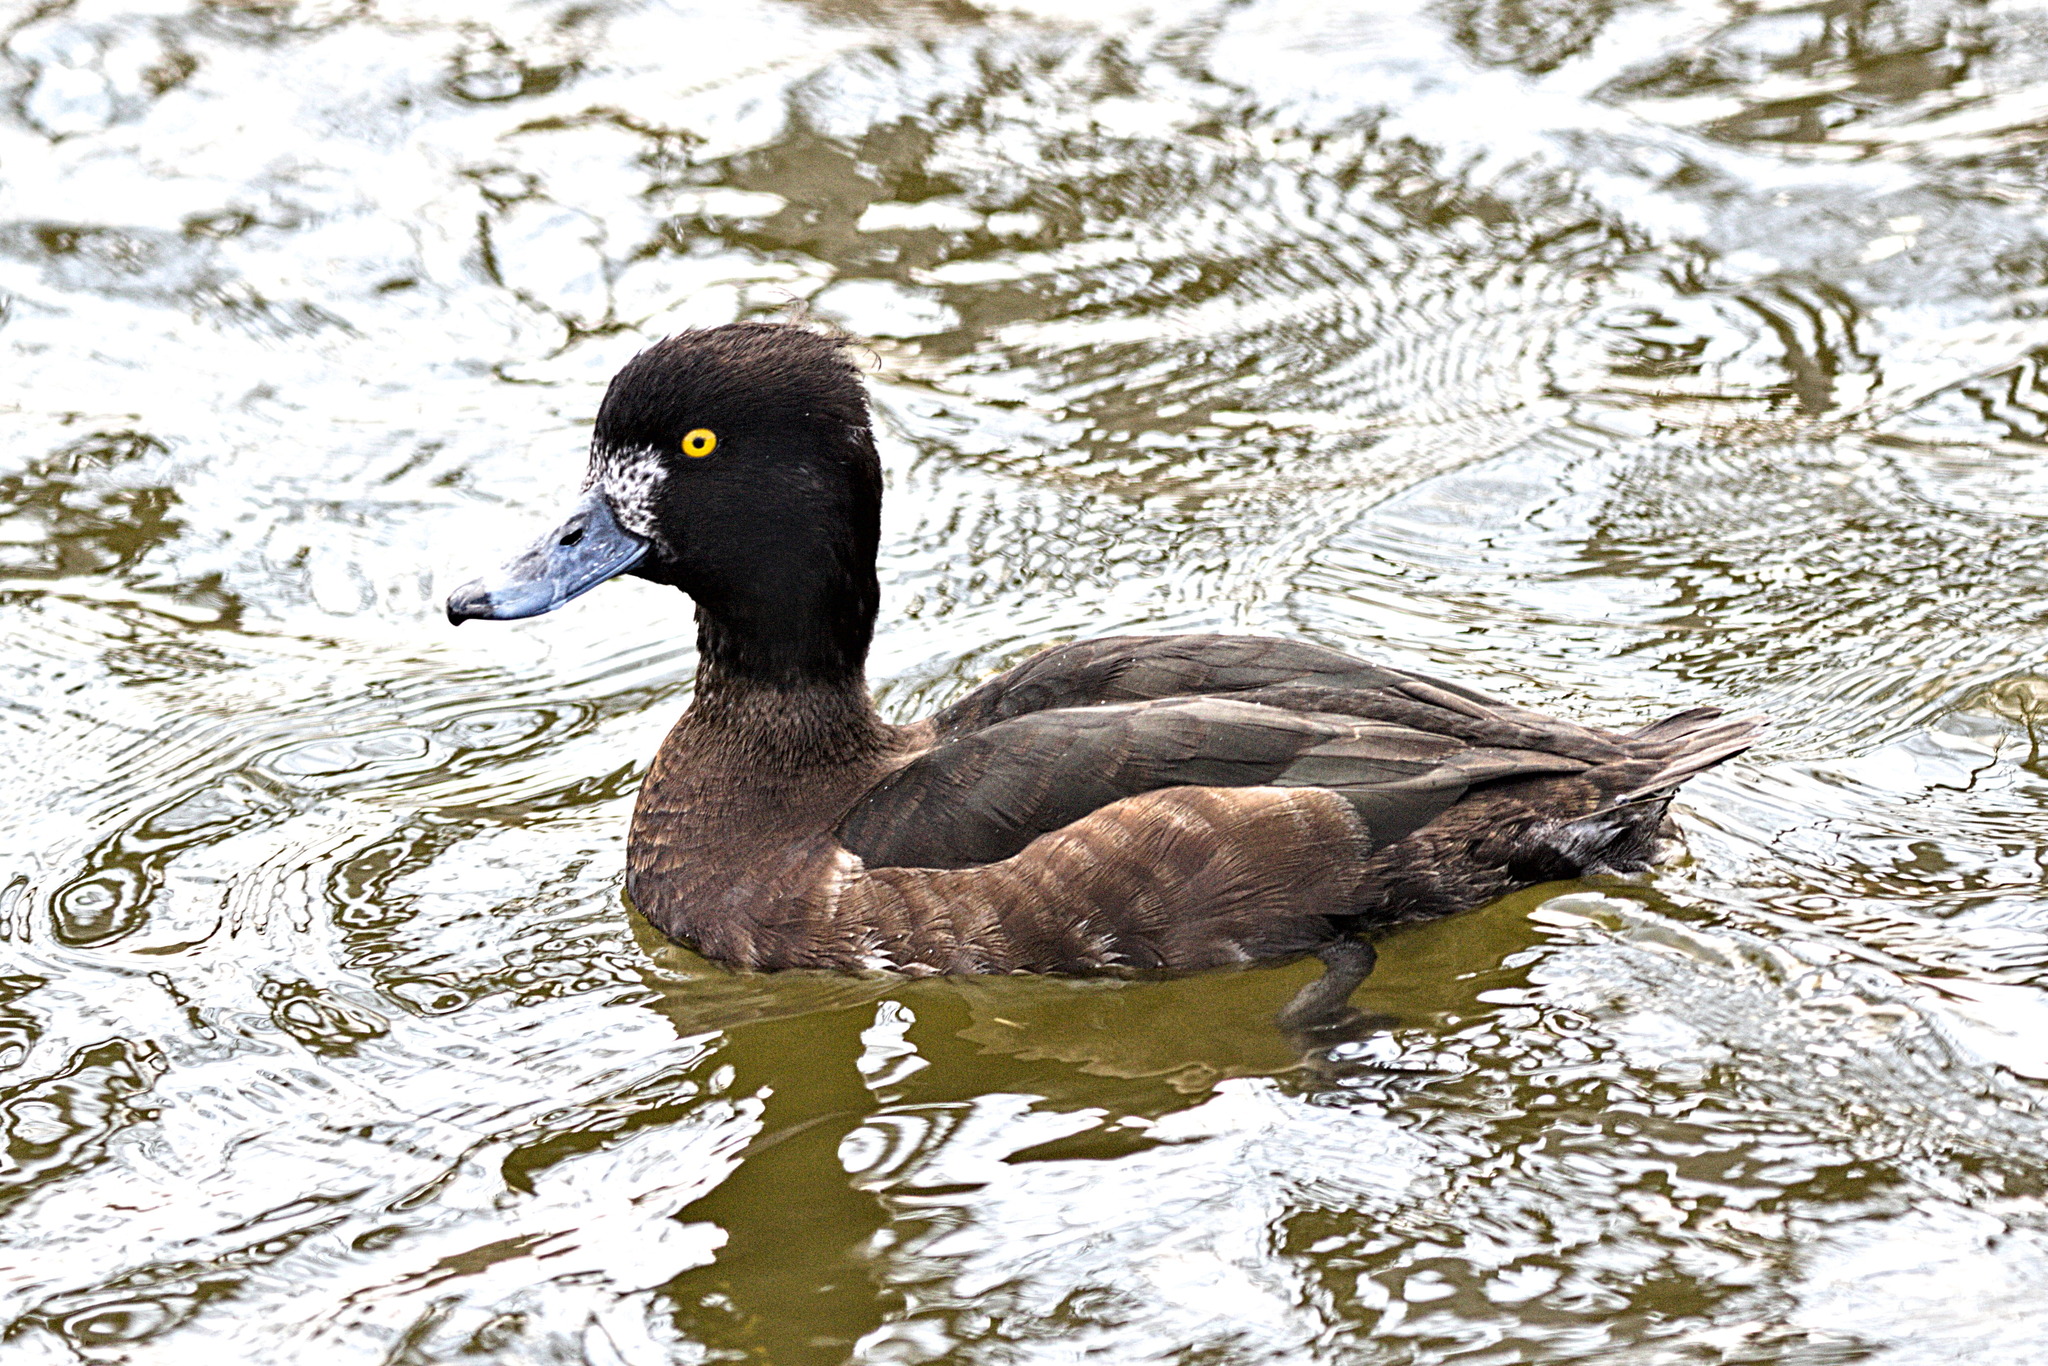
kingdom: Animalia
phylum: Chordata
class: Aves
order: Anseriformes
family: Anatidae
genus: Aythya
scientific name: Aythya fuligula
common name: Tufted duck
